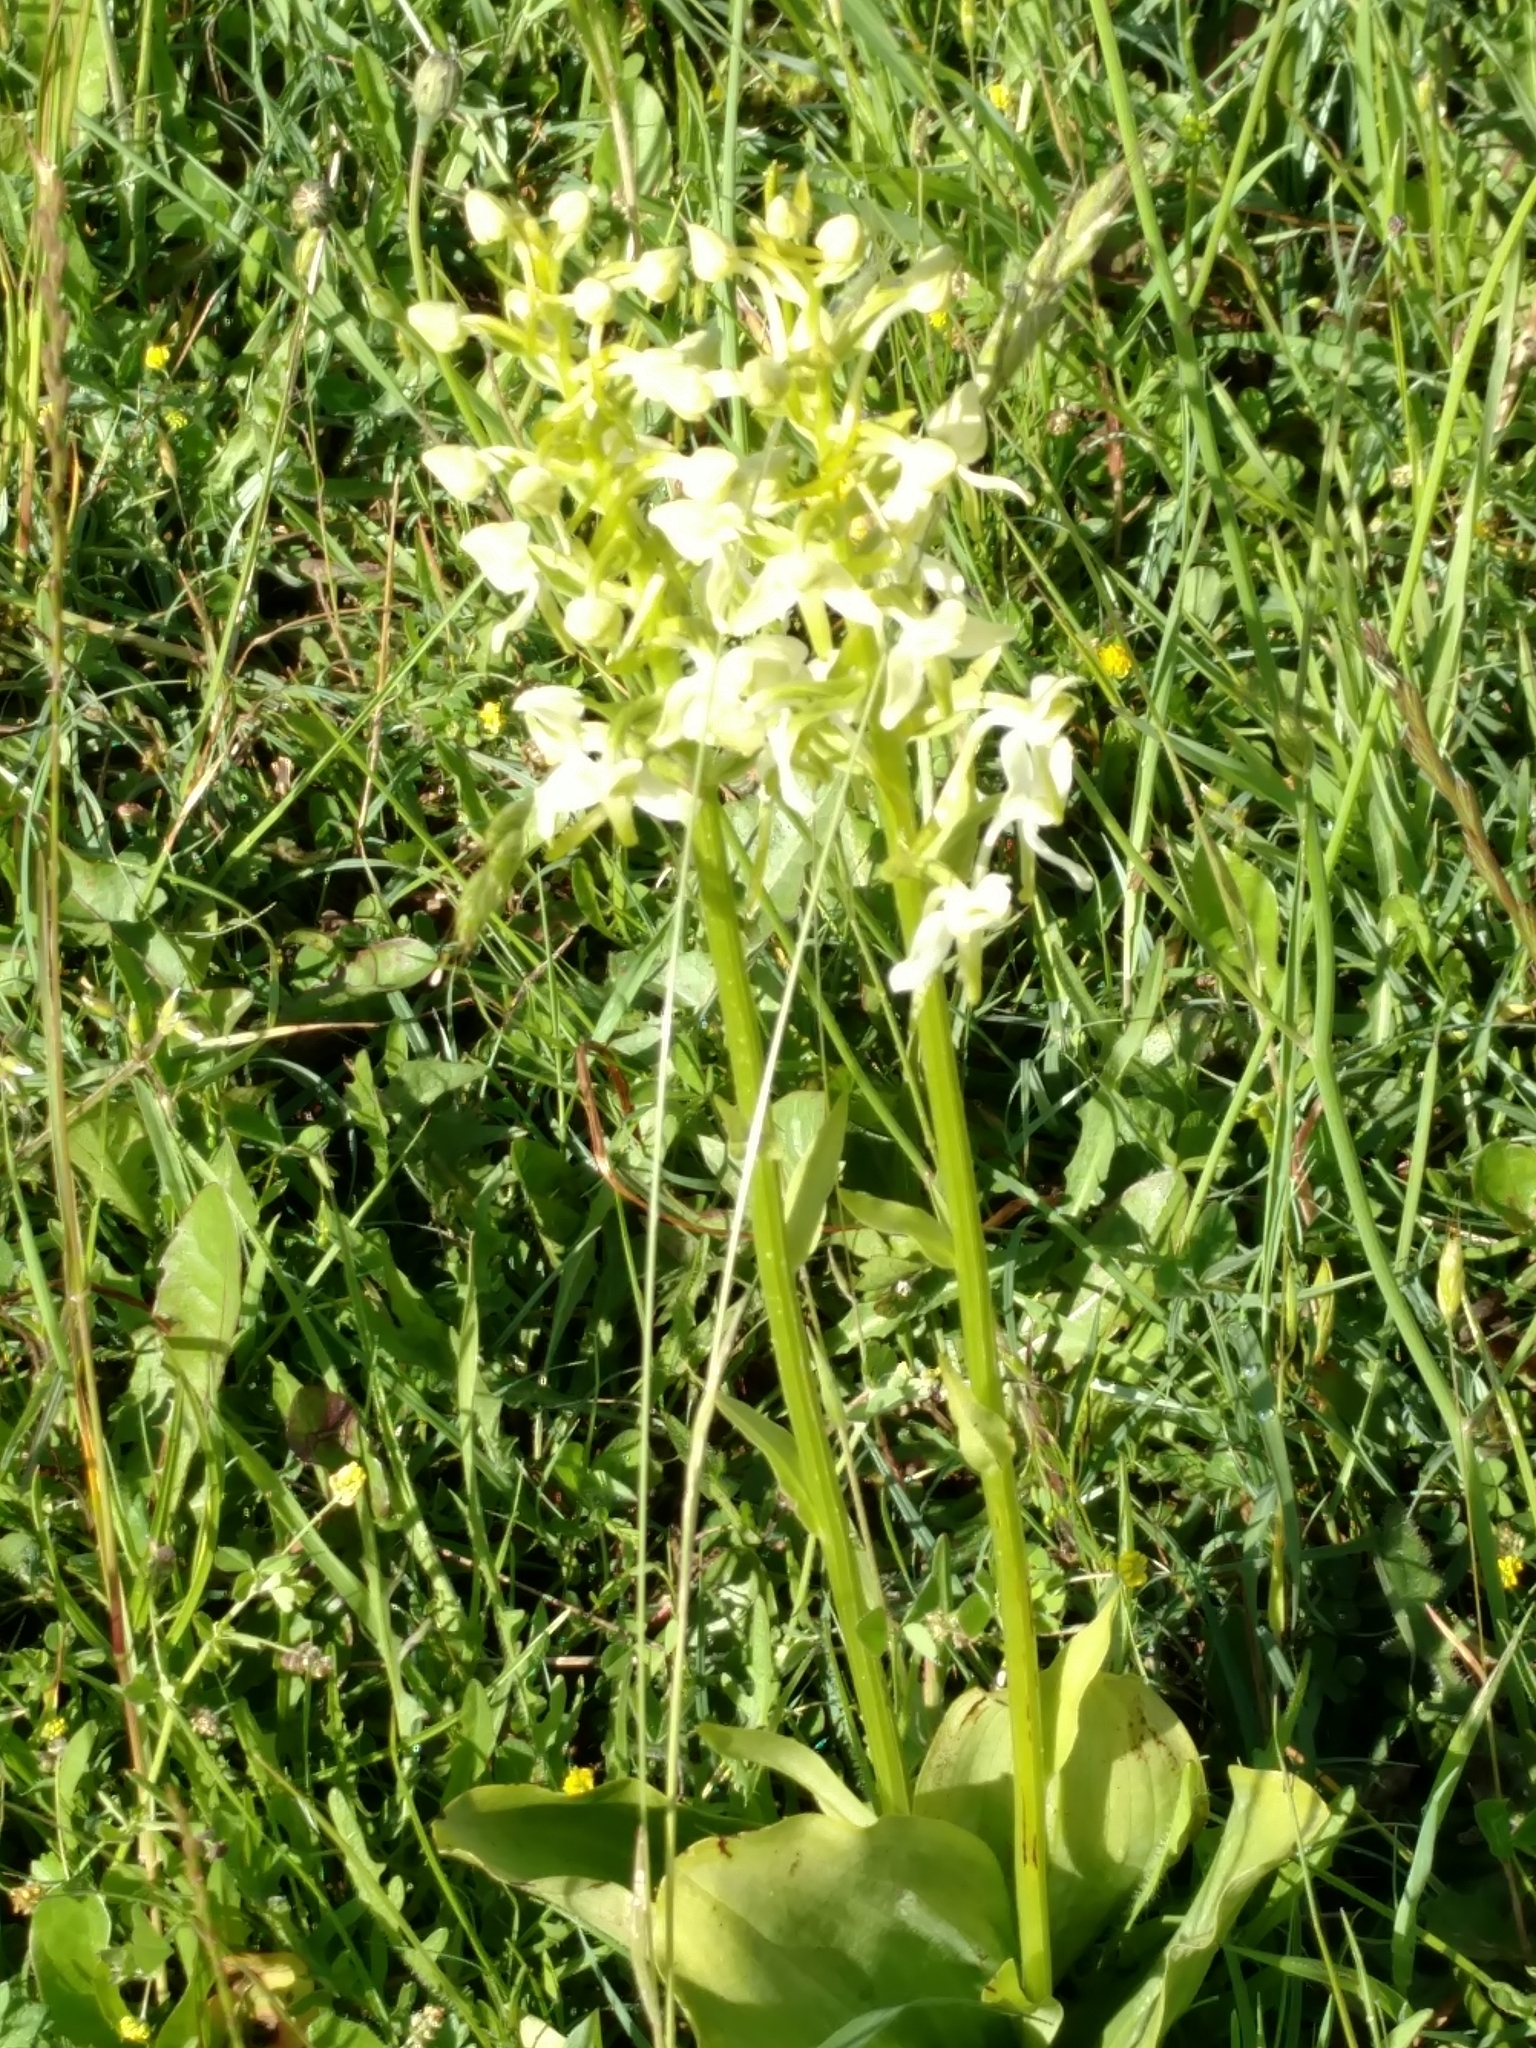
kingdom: Plantae
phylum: Tracheophyta
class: Liliopsida
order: Asparagales
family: Orchidaceae
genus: Platanthera
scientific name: Platanthera chlorantha
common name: Greater butterfly-orchid
